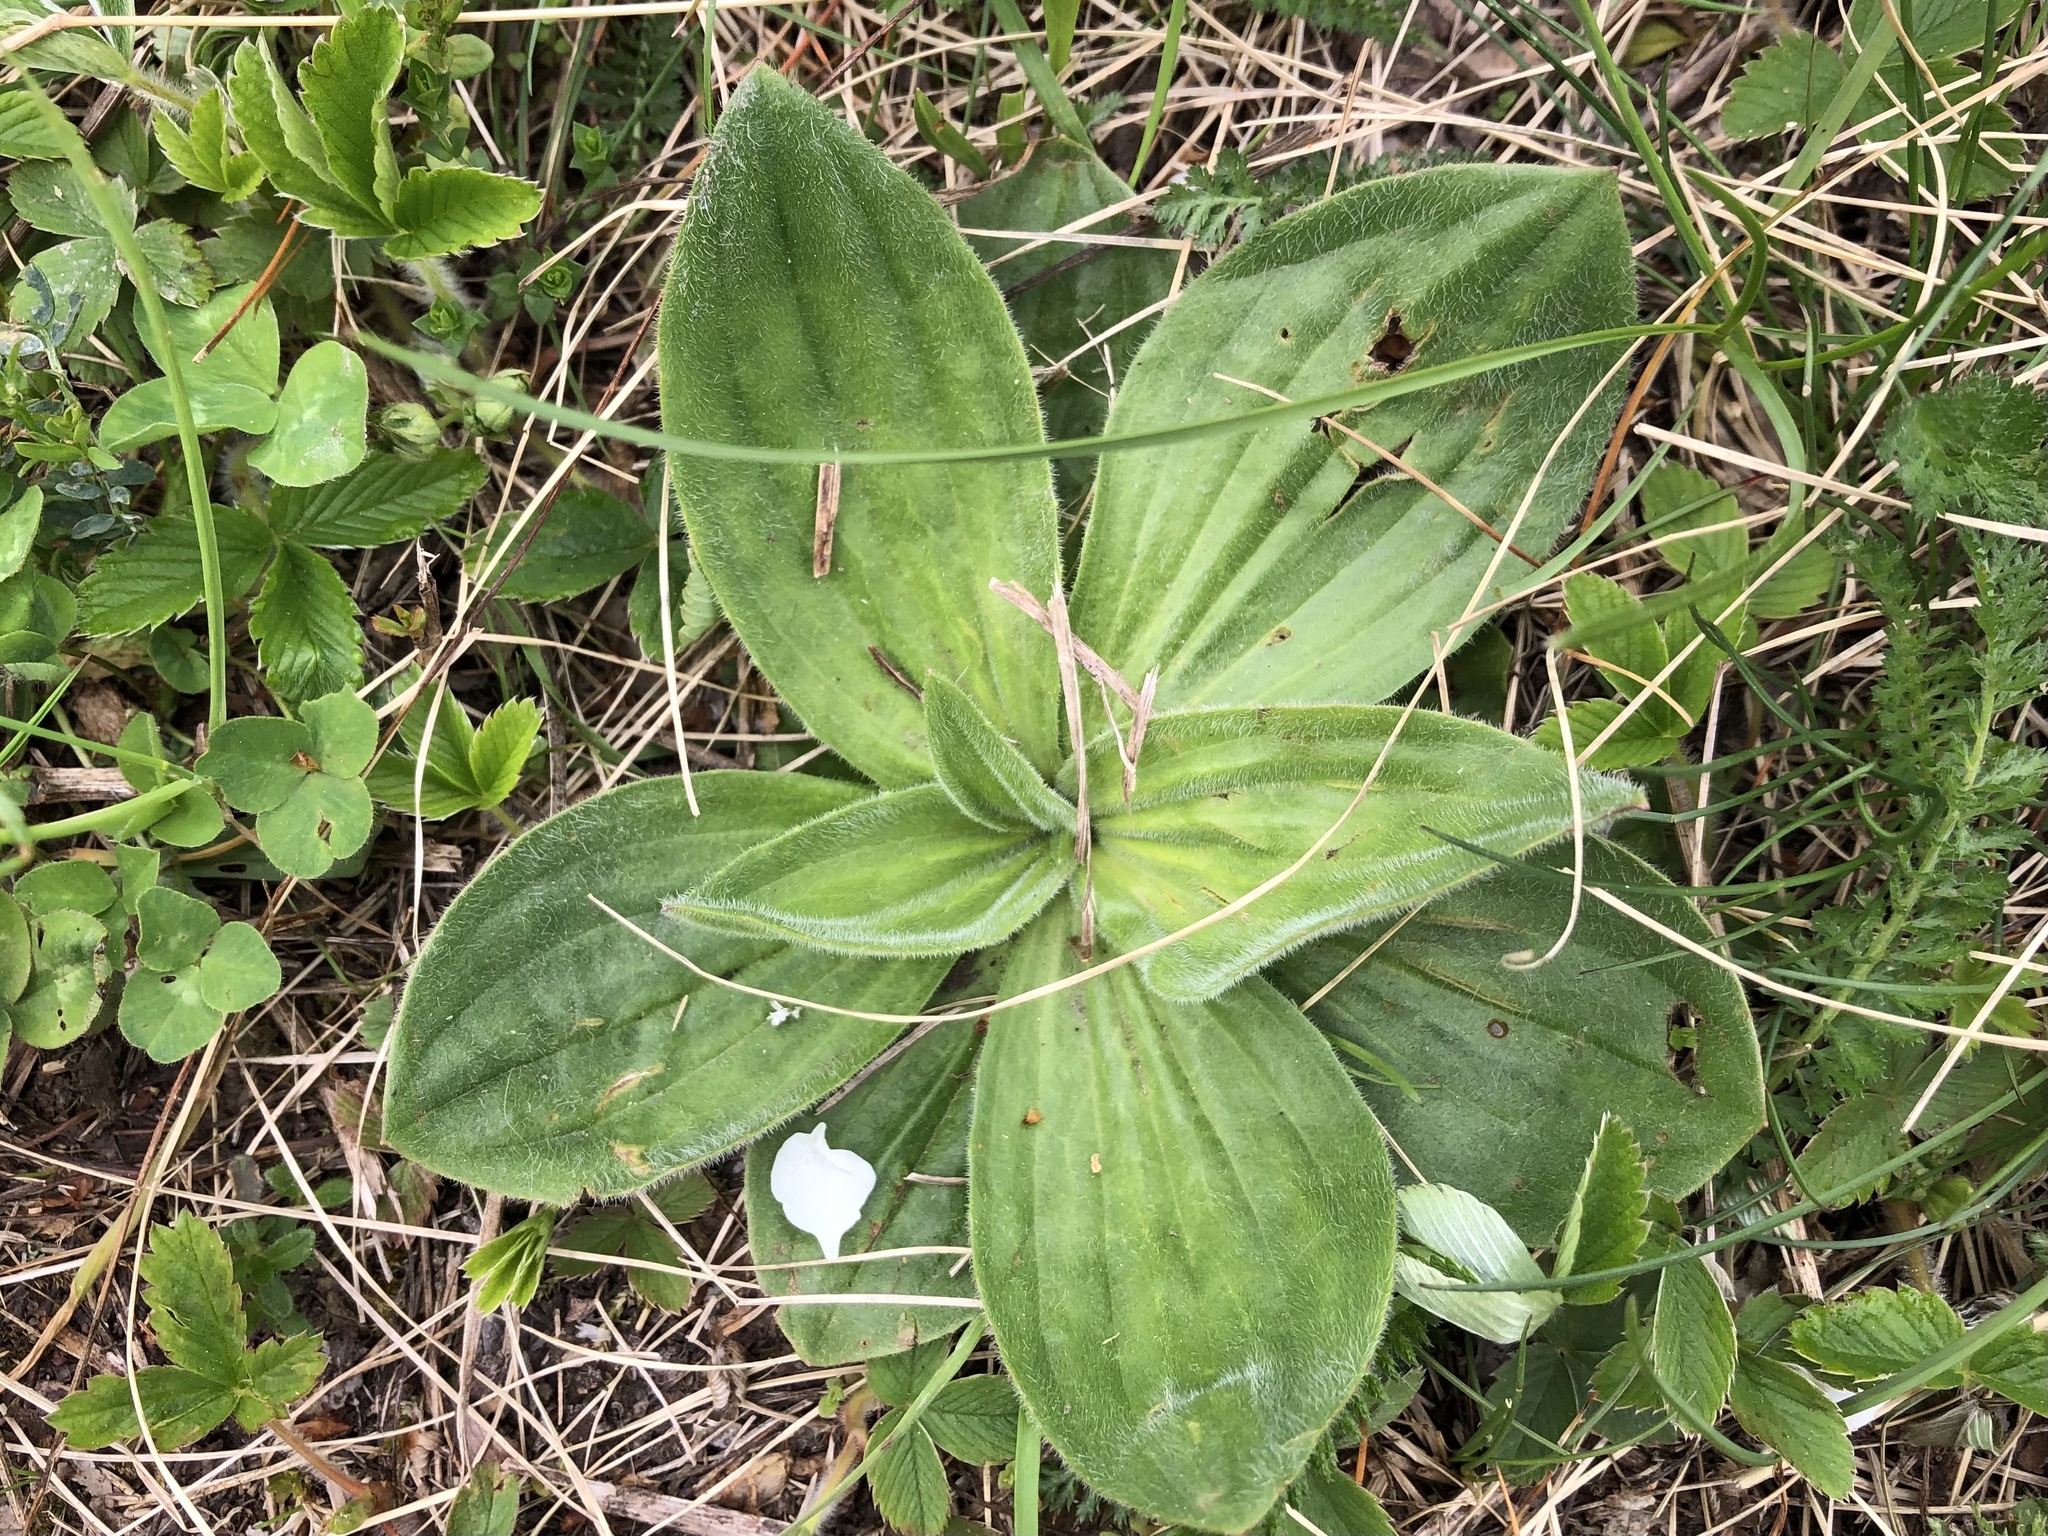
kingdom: Plantae
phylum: Tracheophyta
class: Magnoliopsida
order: Lamiales
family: Plantaginaceae
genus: Plantago
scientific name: Plantago media
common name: Hoary plantain
